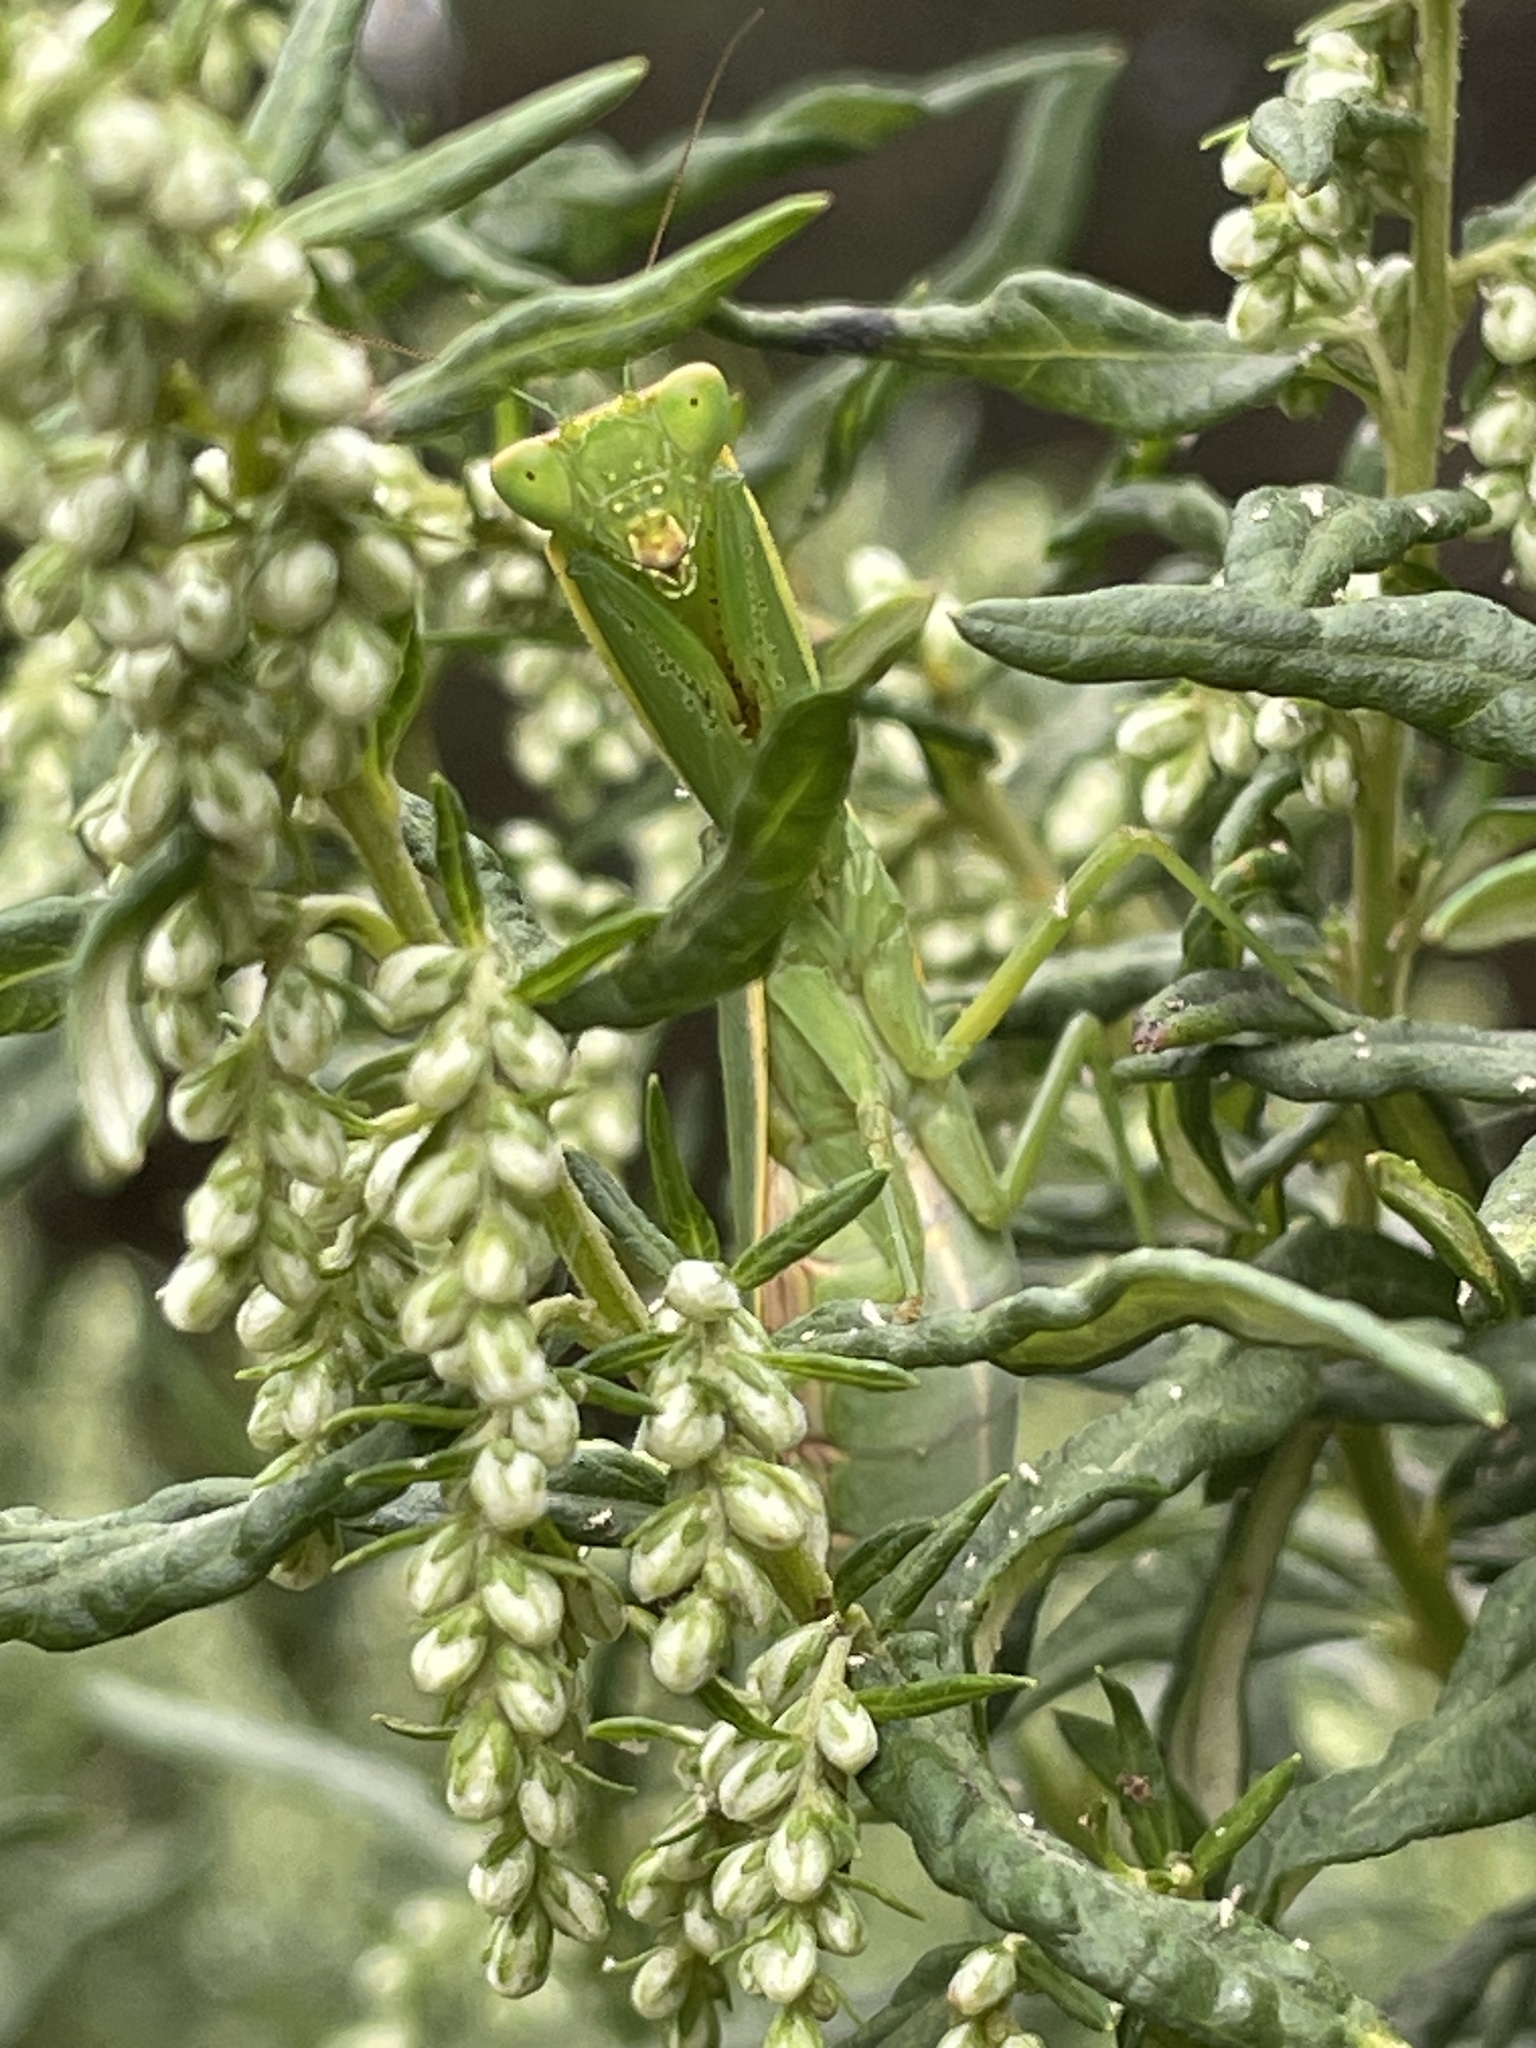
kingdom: Animalia
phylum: Arthropoda
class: Insecta
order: Mantodea
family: Mantidae
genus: Orthodera
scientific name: Orthodera ministralis
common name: Mantis
